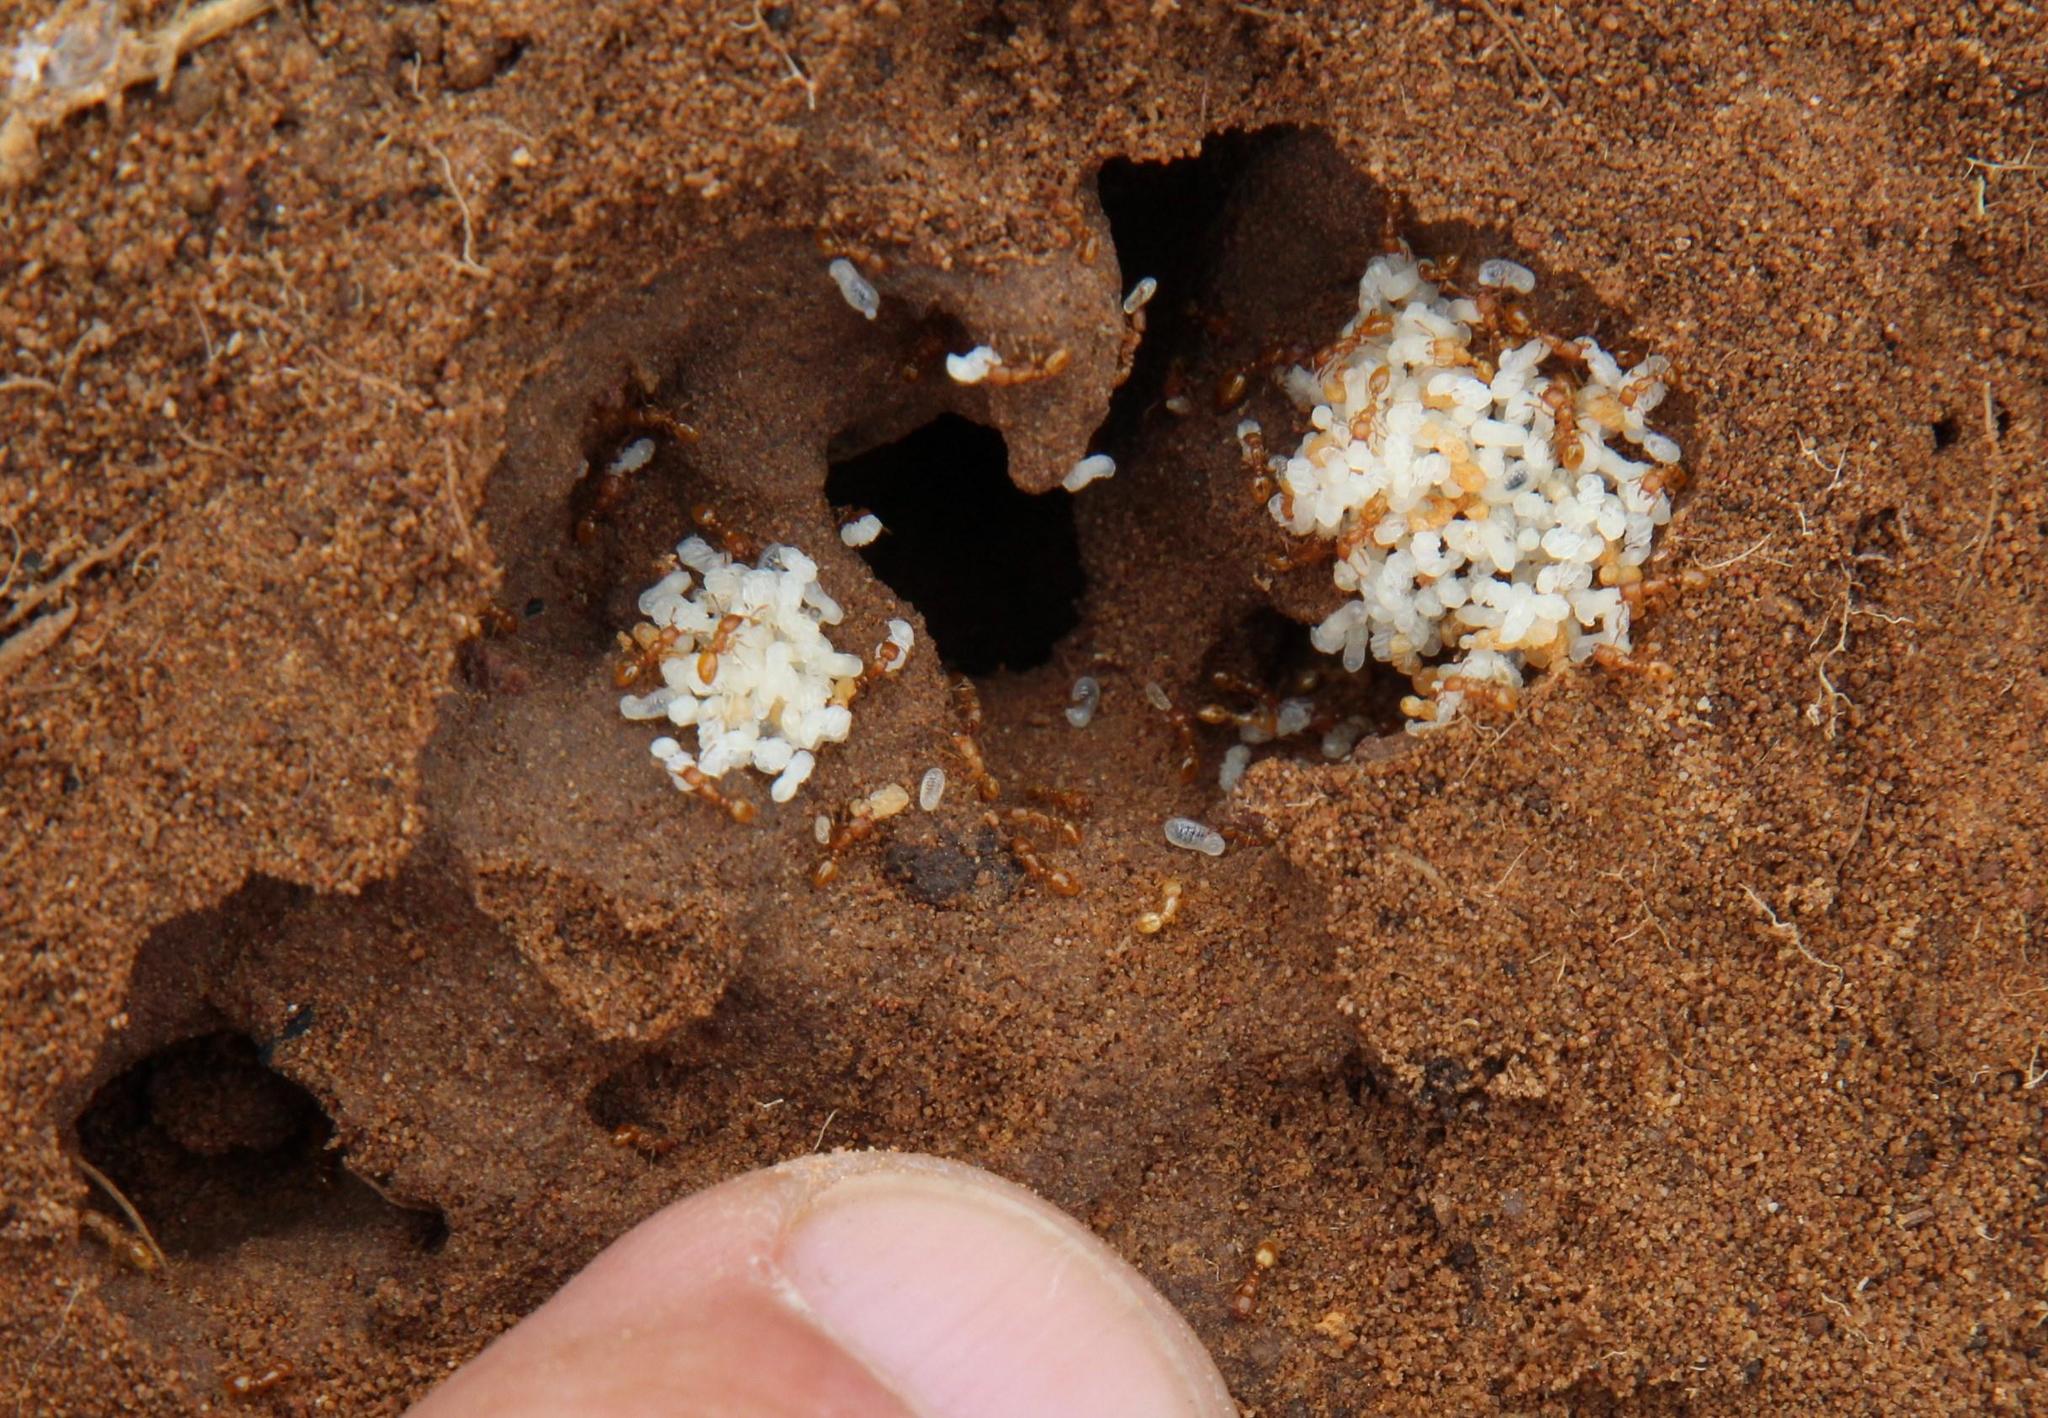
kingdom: Animalia
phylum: Arthropoda
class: Insecta
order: Hymenoptera
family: Formicidae
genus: Solenopsis
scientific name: Solenopsis punctaticeps
